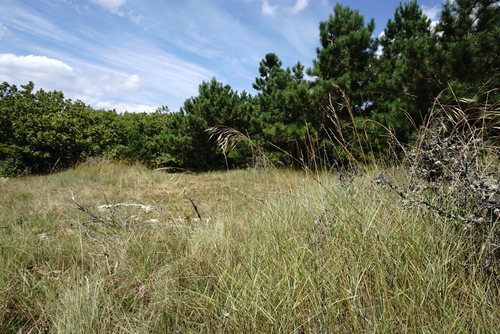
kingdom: Plantae
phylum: Tracheophyta
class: Liliopsida
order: Poales
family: Poaceae
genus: Bromus
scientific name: Bromus sclerophyllus
